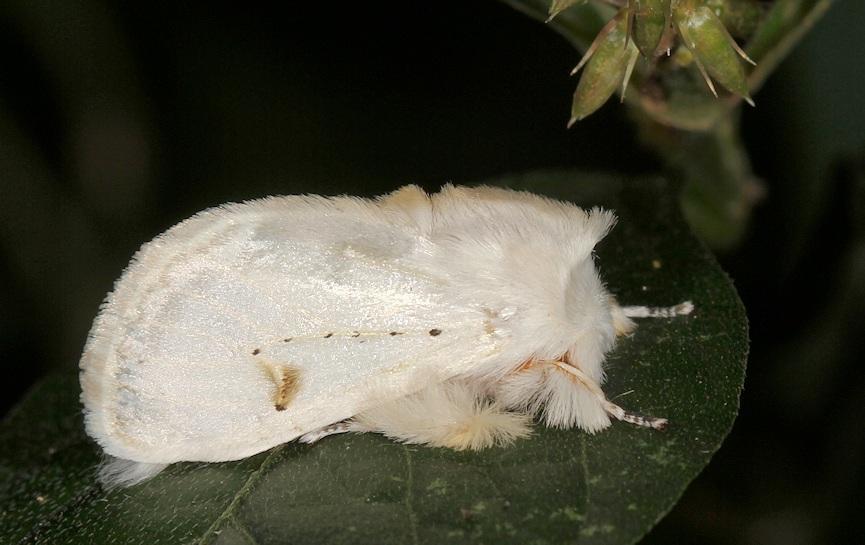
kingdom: Animalia
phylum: Arthropoda
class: Insecta
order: Lepidoptera
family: Erebidae
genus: Naroma
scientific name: Naroma varipes
